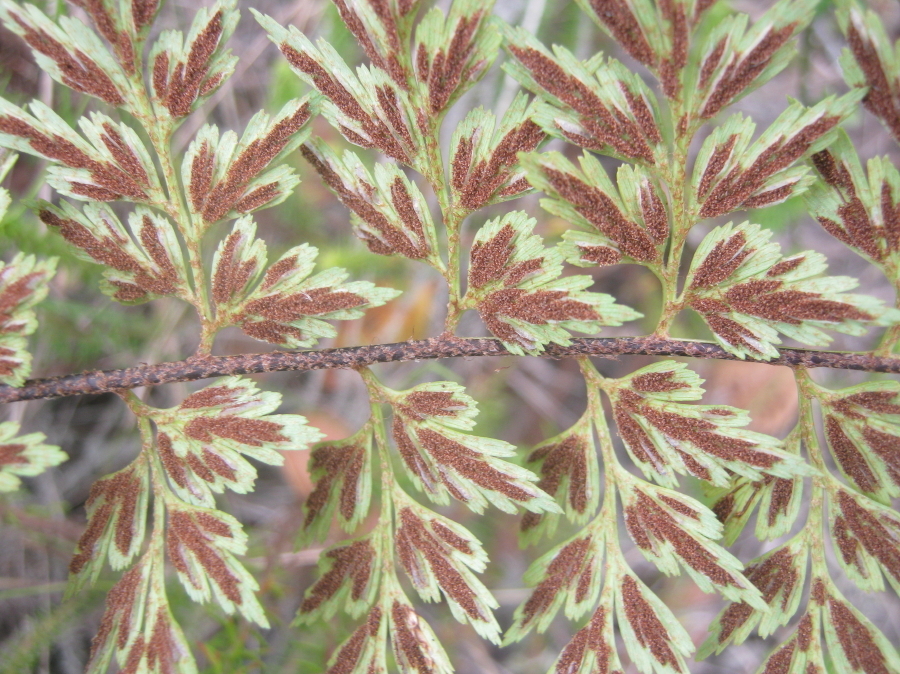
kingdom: Plantae
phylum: Tracheophyta
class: Polypodiopsida
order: Polypodiales
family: Aspleniaceae
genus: Asplenium
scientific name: Asplenium aethiopicum
